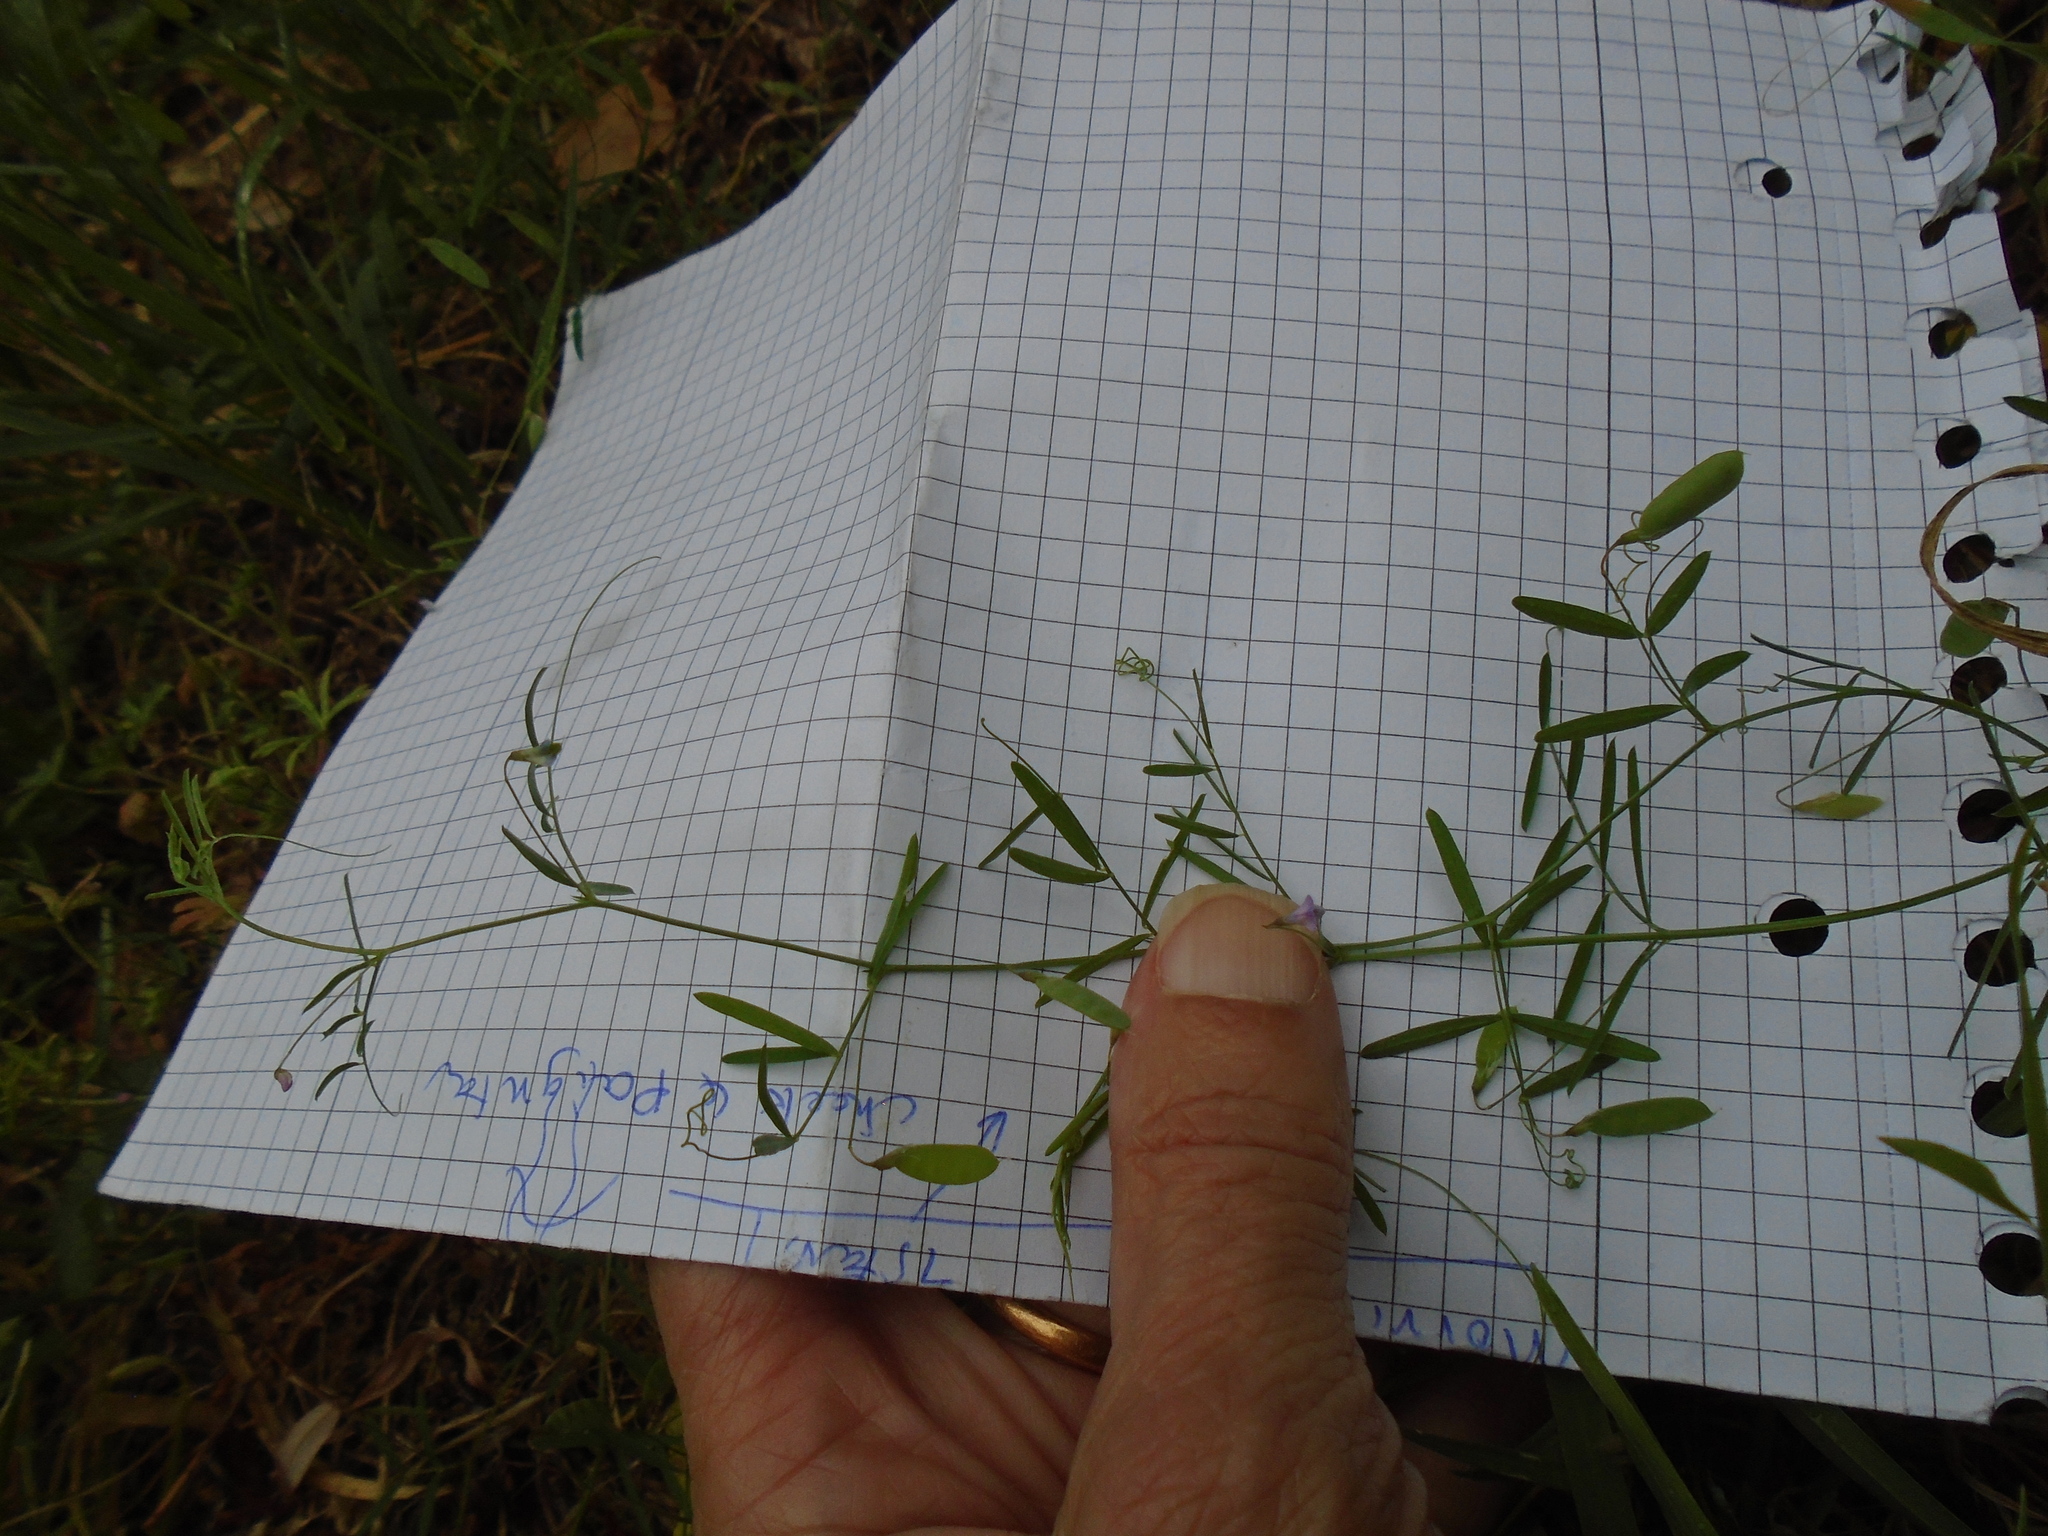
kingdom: Plantae
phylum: Tracheophyta
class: Magnoliopsida
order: Fabales
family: Fabaceae
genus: Vicia
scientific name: Vicia tetrasperma
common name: Smooth tare
